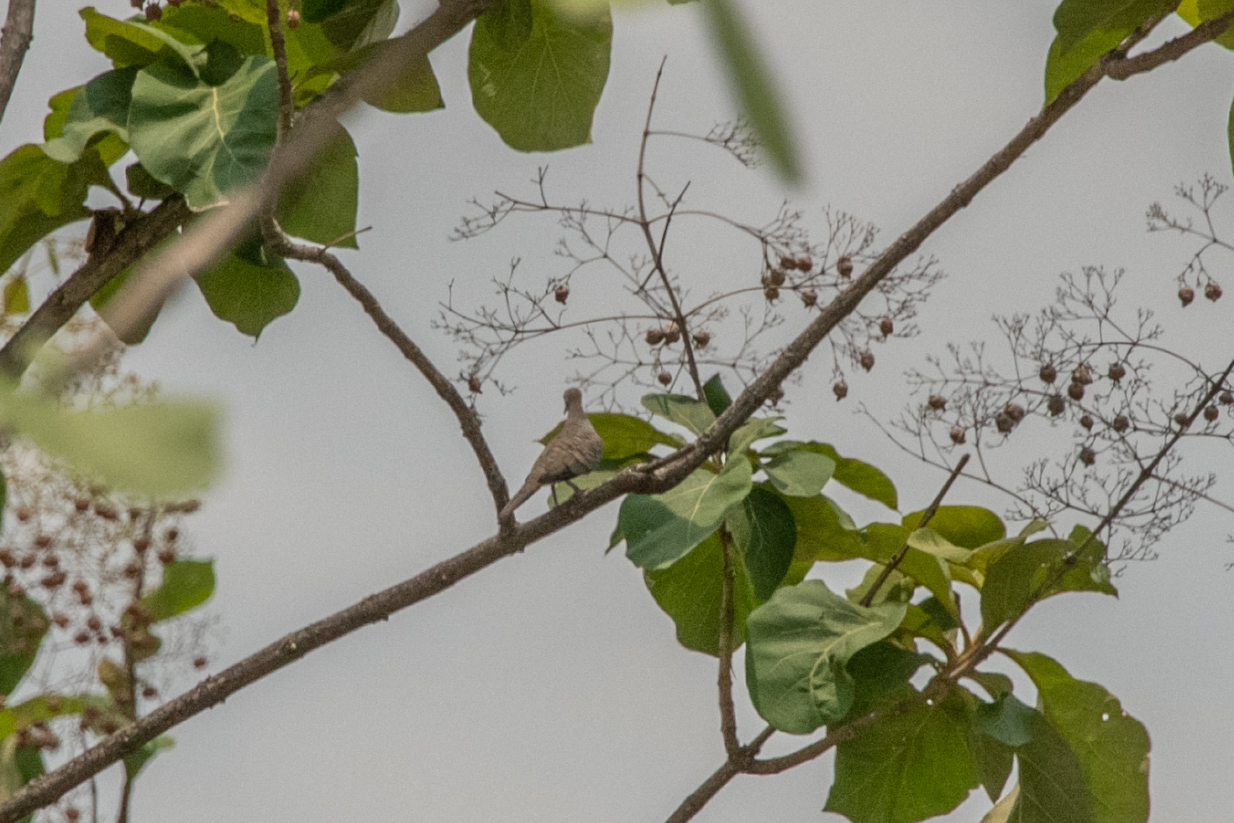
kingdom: Animalia
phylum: Chordata
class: Aves
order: Columbiformes
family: Columbidae
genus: Geopelia
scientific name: Geopelia striata
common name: Zebra dove
